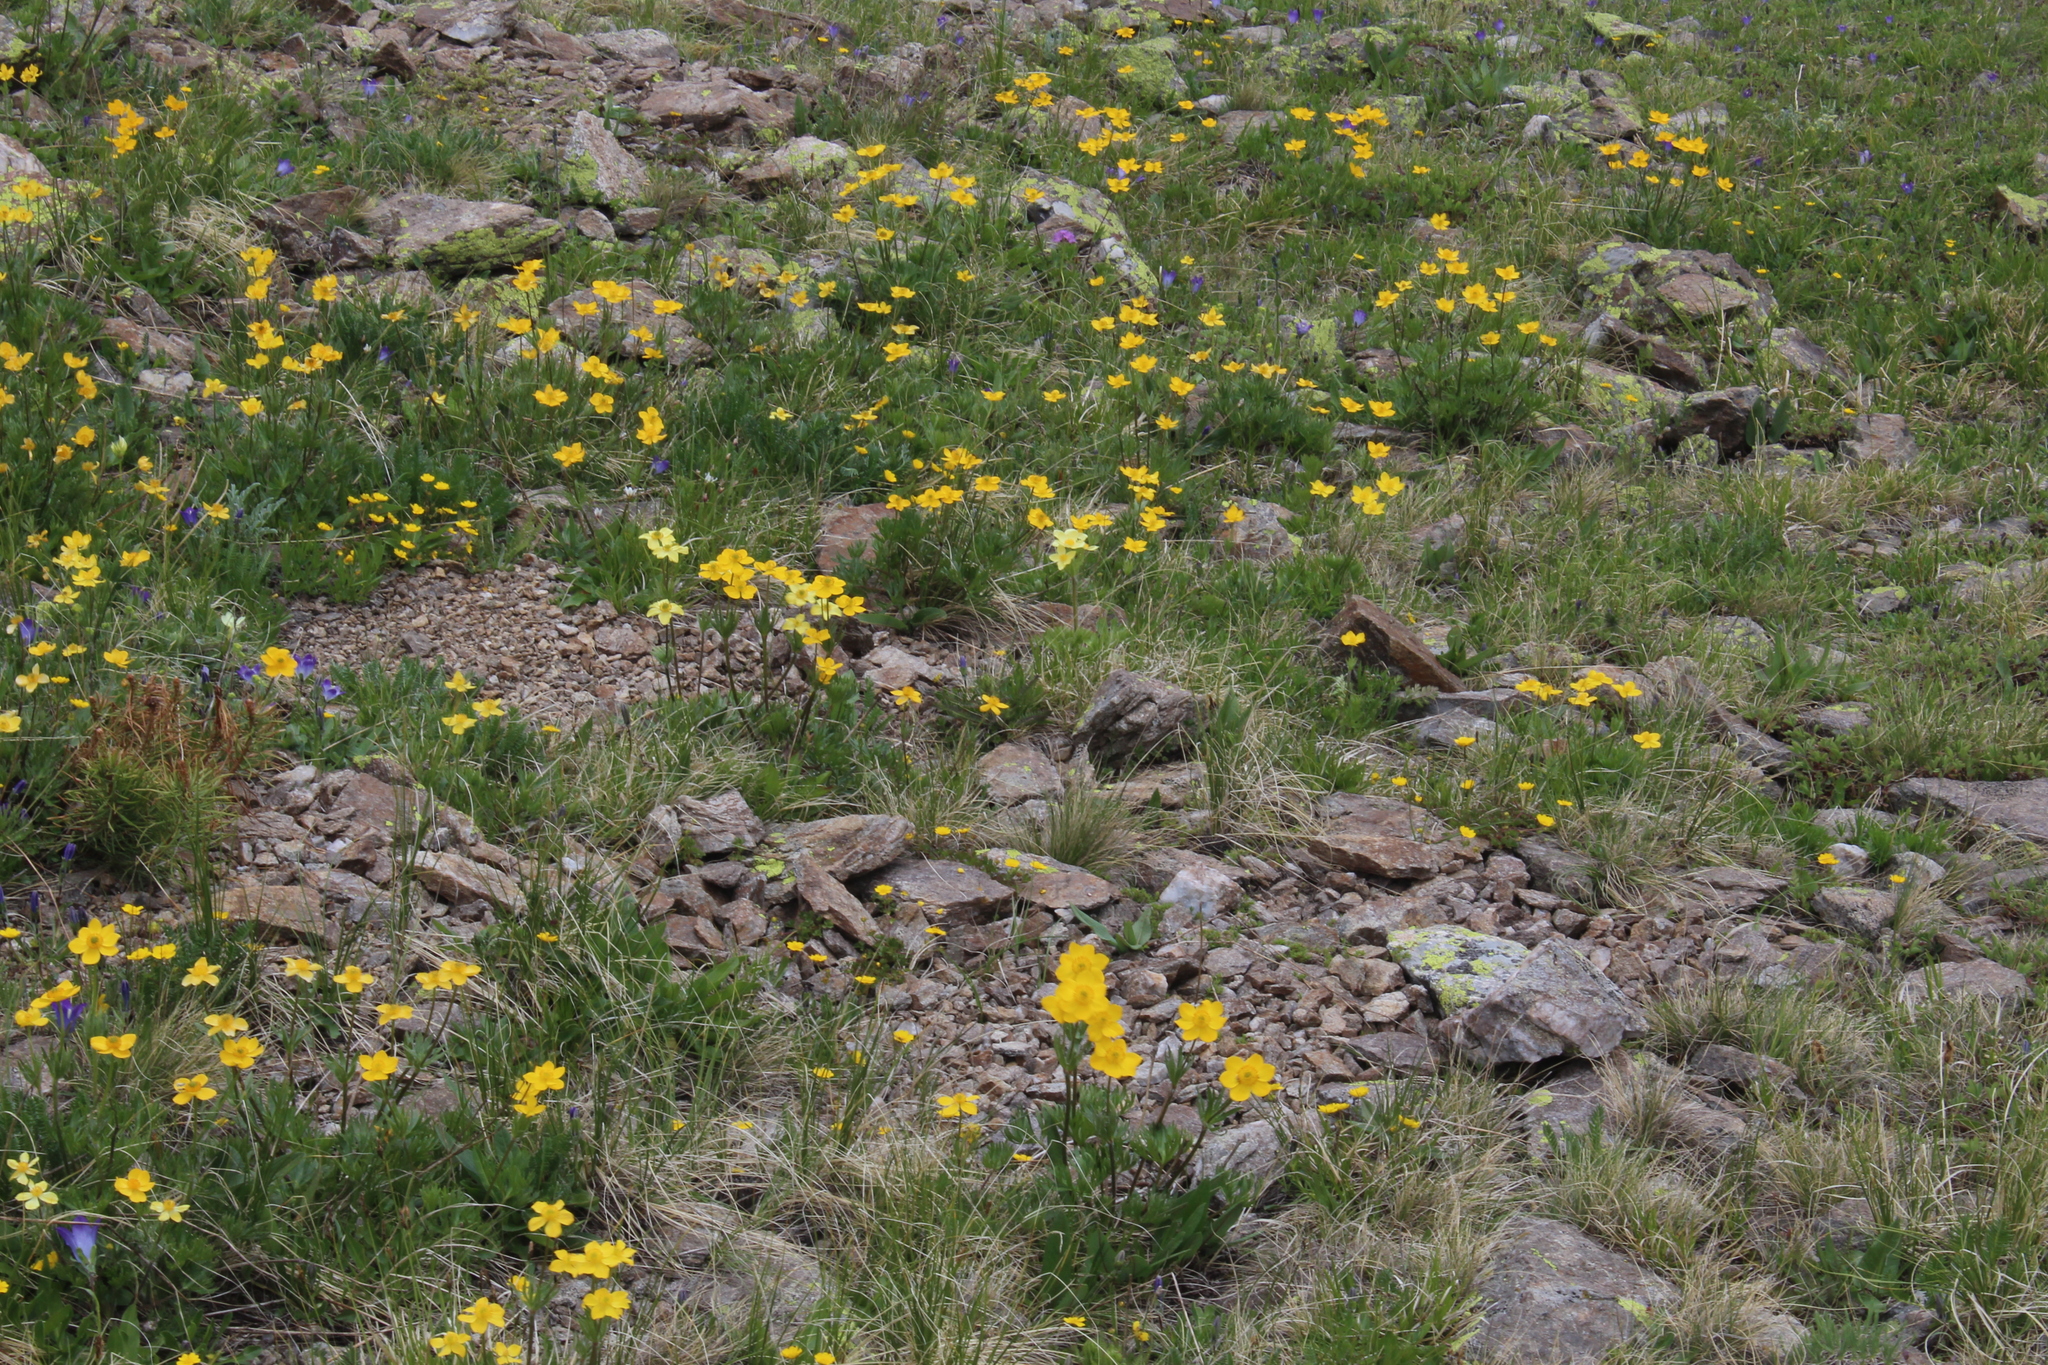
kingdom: Plantae
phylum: Tracheophyta
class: Magnoliopsida
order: Ranunculales
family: Ranunculaceae
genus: Anemonastrum
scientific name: Anemonastrum narcissiflorum
